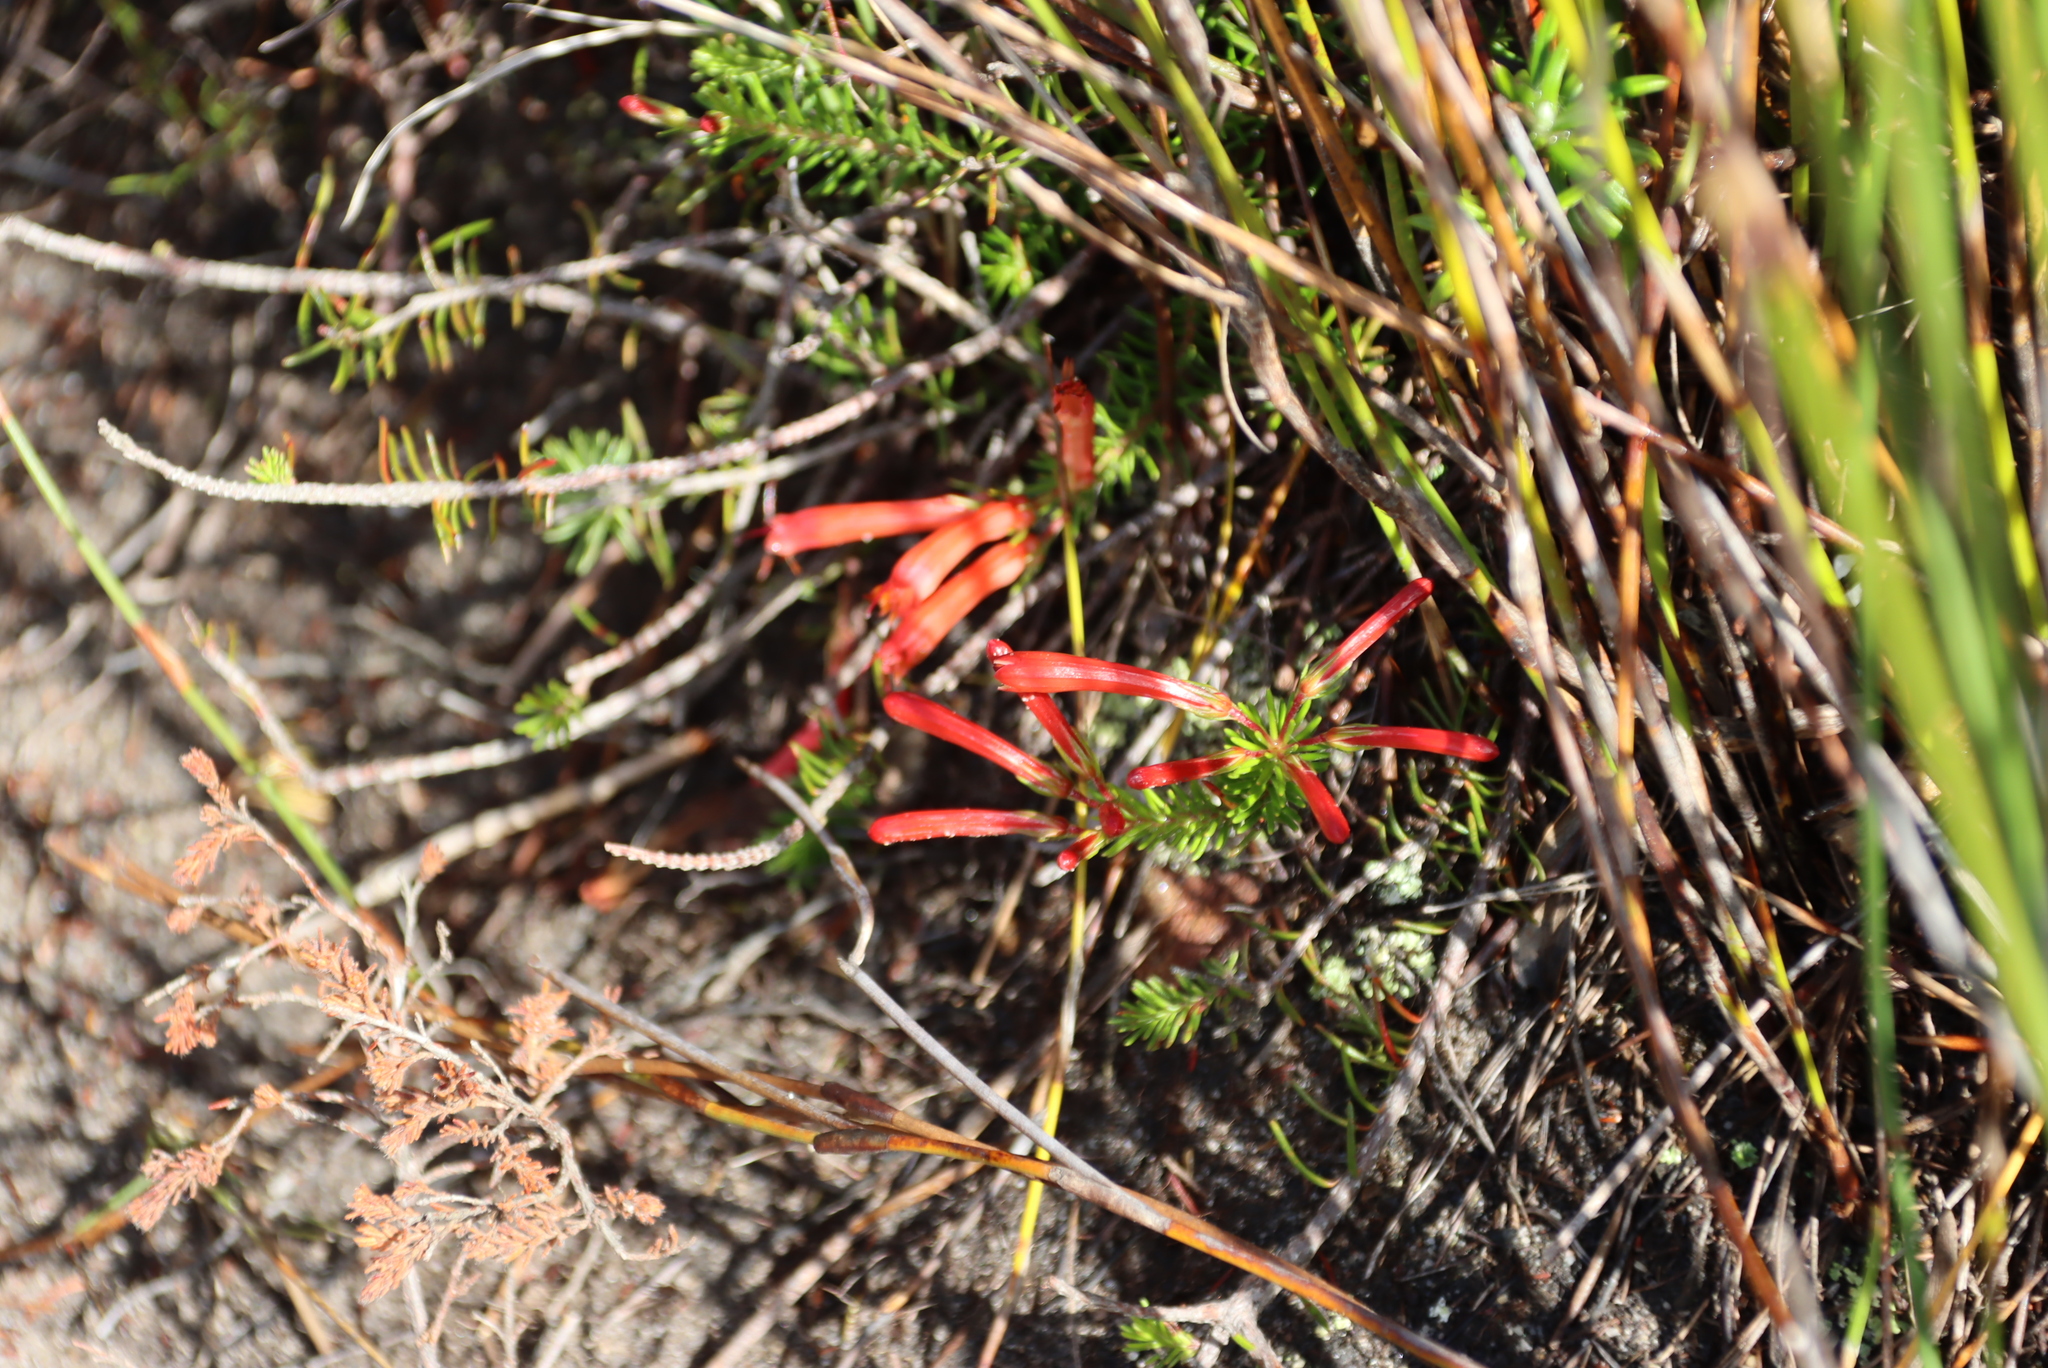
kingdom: Plantae
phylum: Tracheophyta
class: Magnoliopsida
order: Ericales
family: Ericaceae
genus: Erica
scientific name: Erica nevillei
